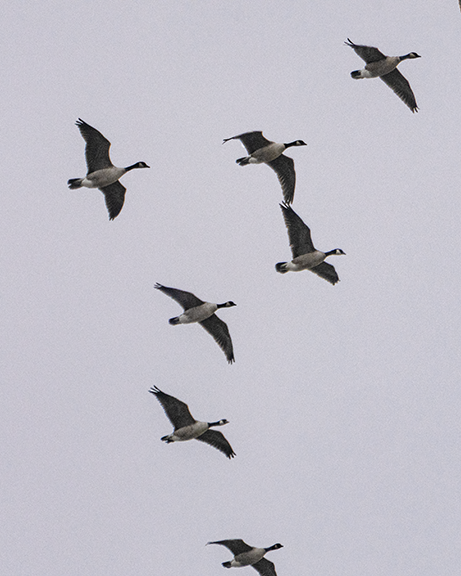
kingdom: Animalia
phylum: Chordata
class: Aves
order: Anseriformes
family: Anatidae
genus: Branta
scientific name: Branta canadensis
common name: Canada goose
